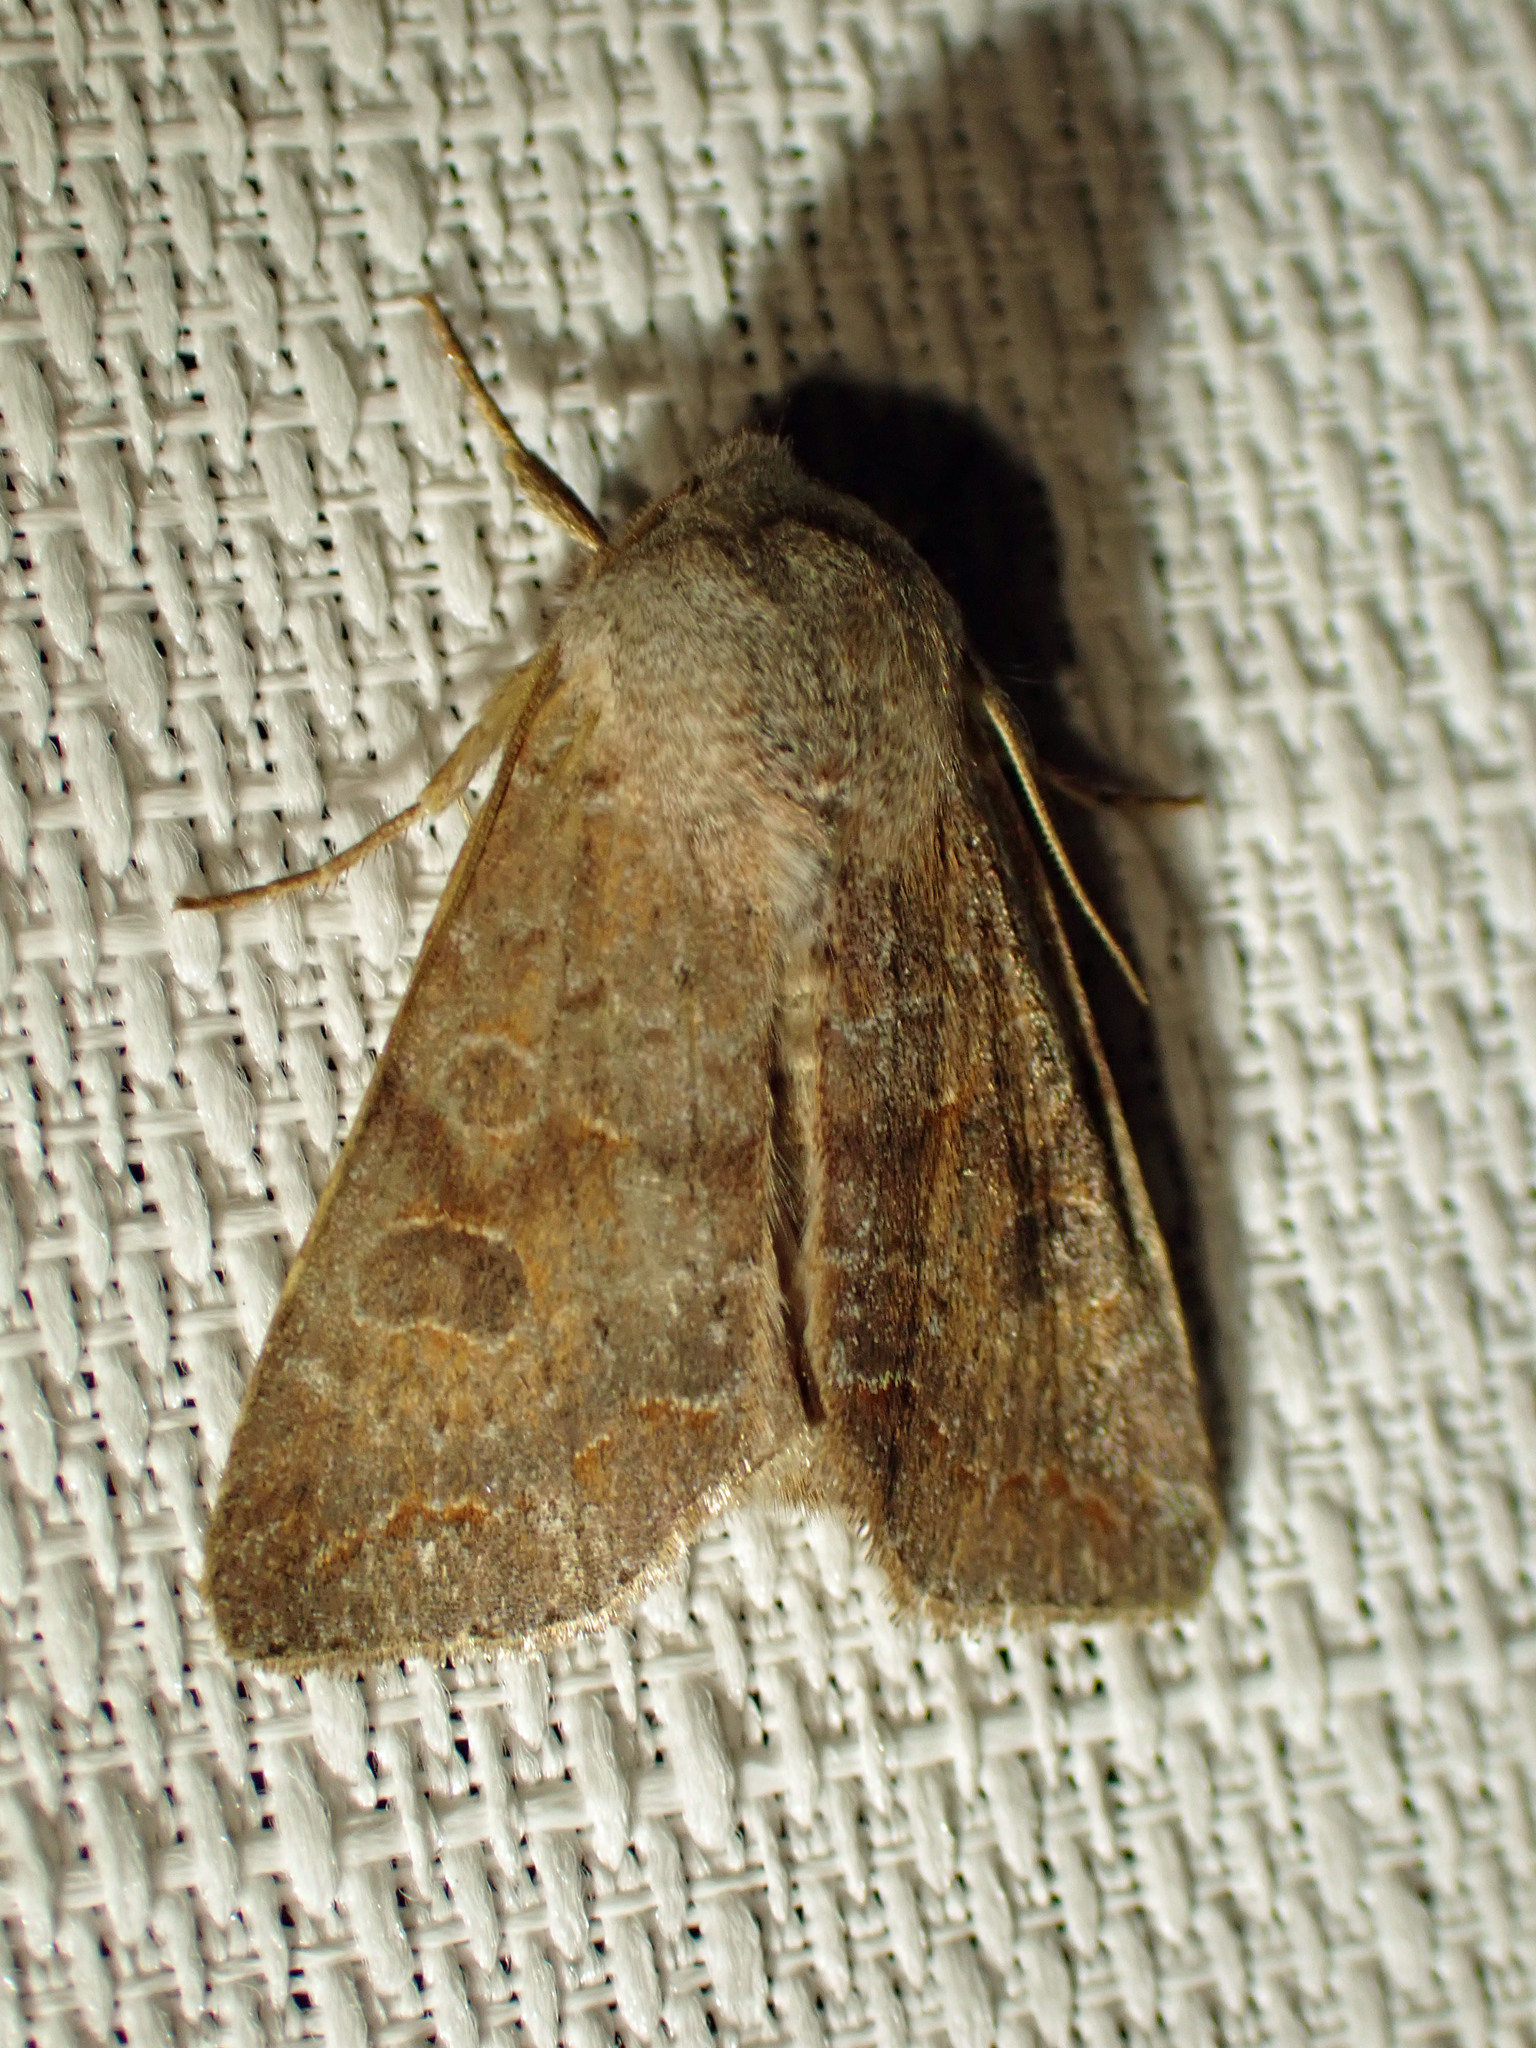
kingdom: Animalia
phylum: Arthropoda
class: Insecta
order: Lepidoptera
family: Noctuidae
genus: Orthosia
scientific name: Orthosia revicta
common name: Rusty whitesided caterpillar
